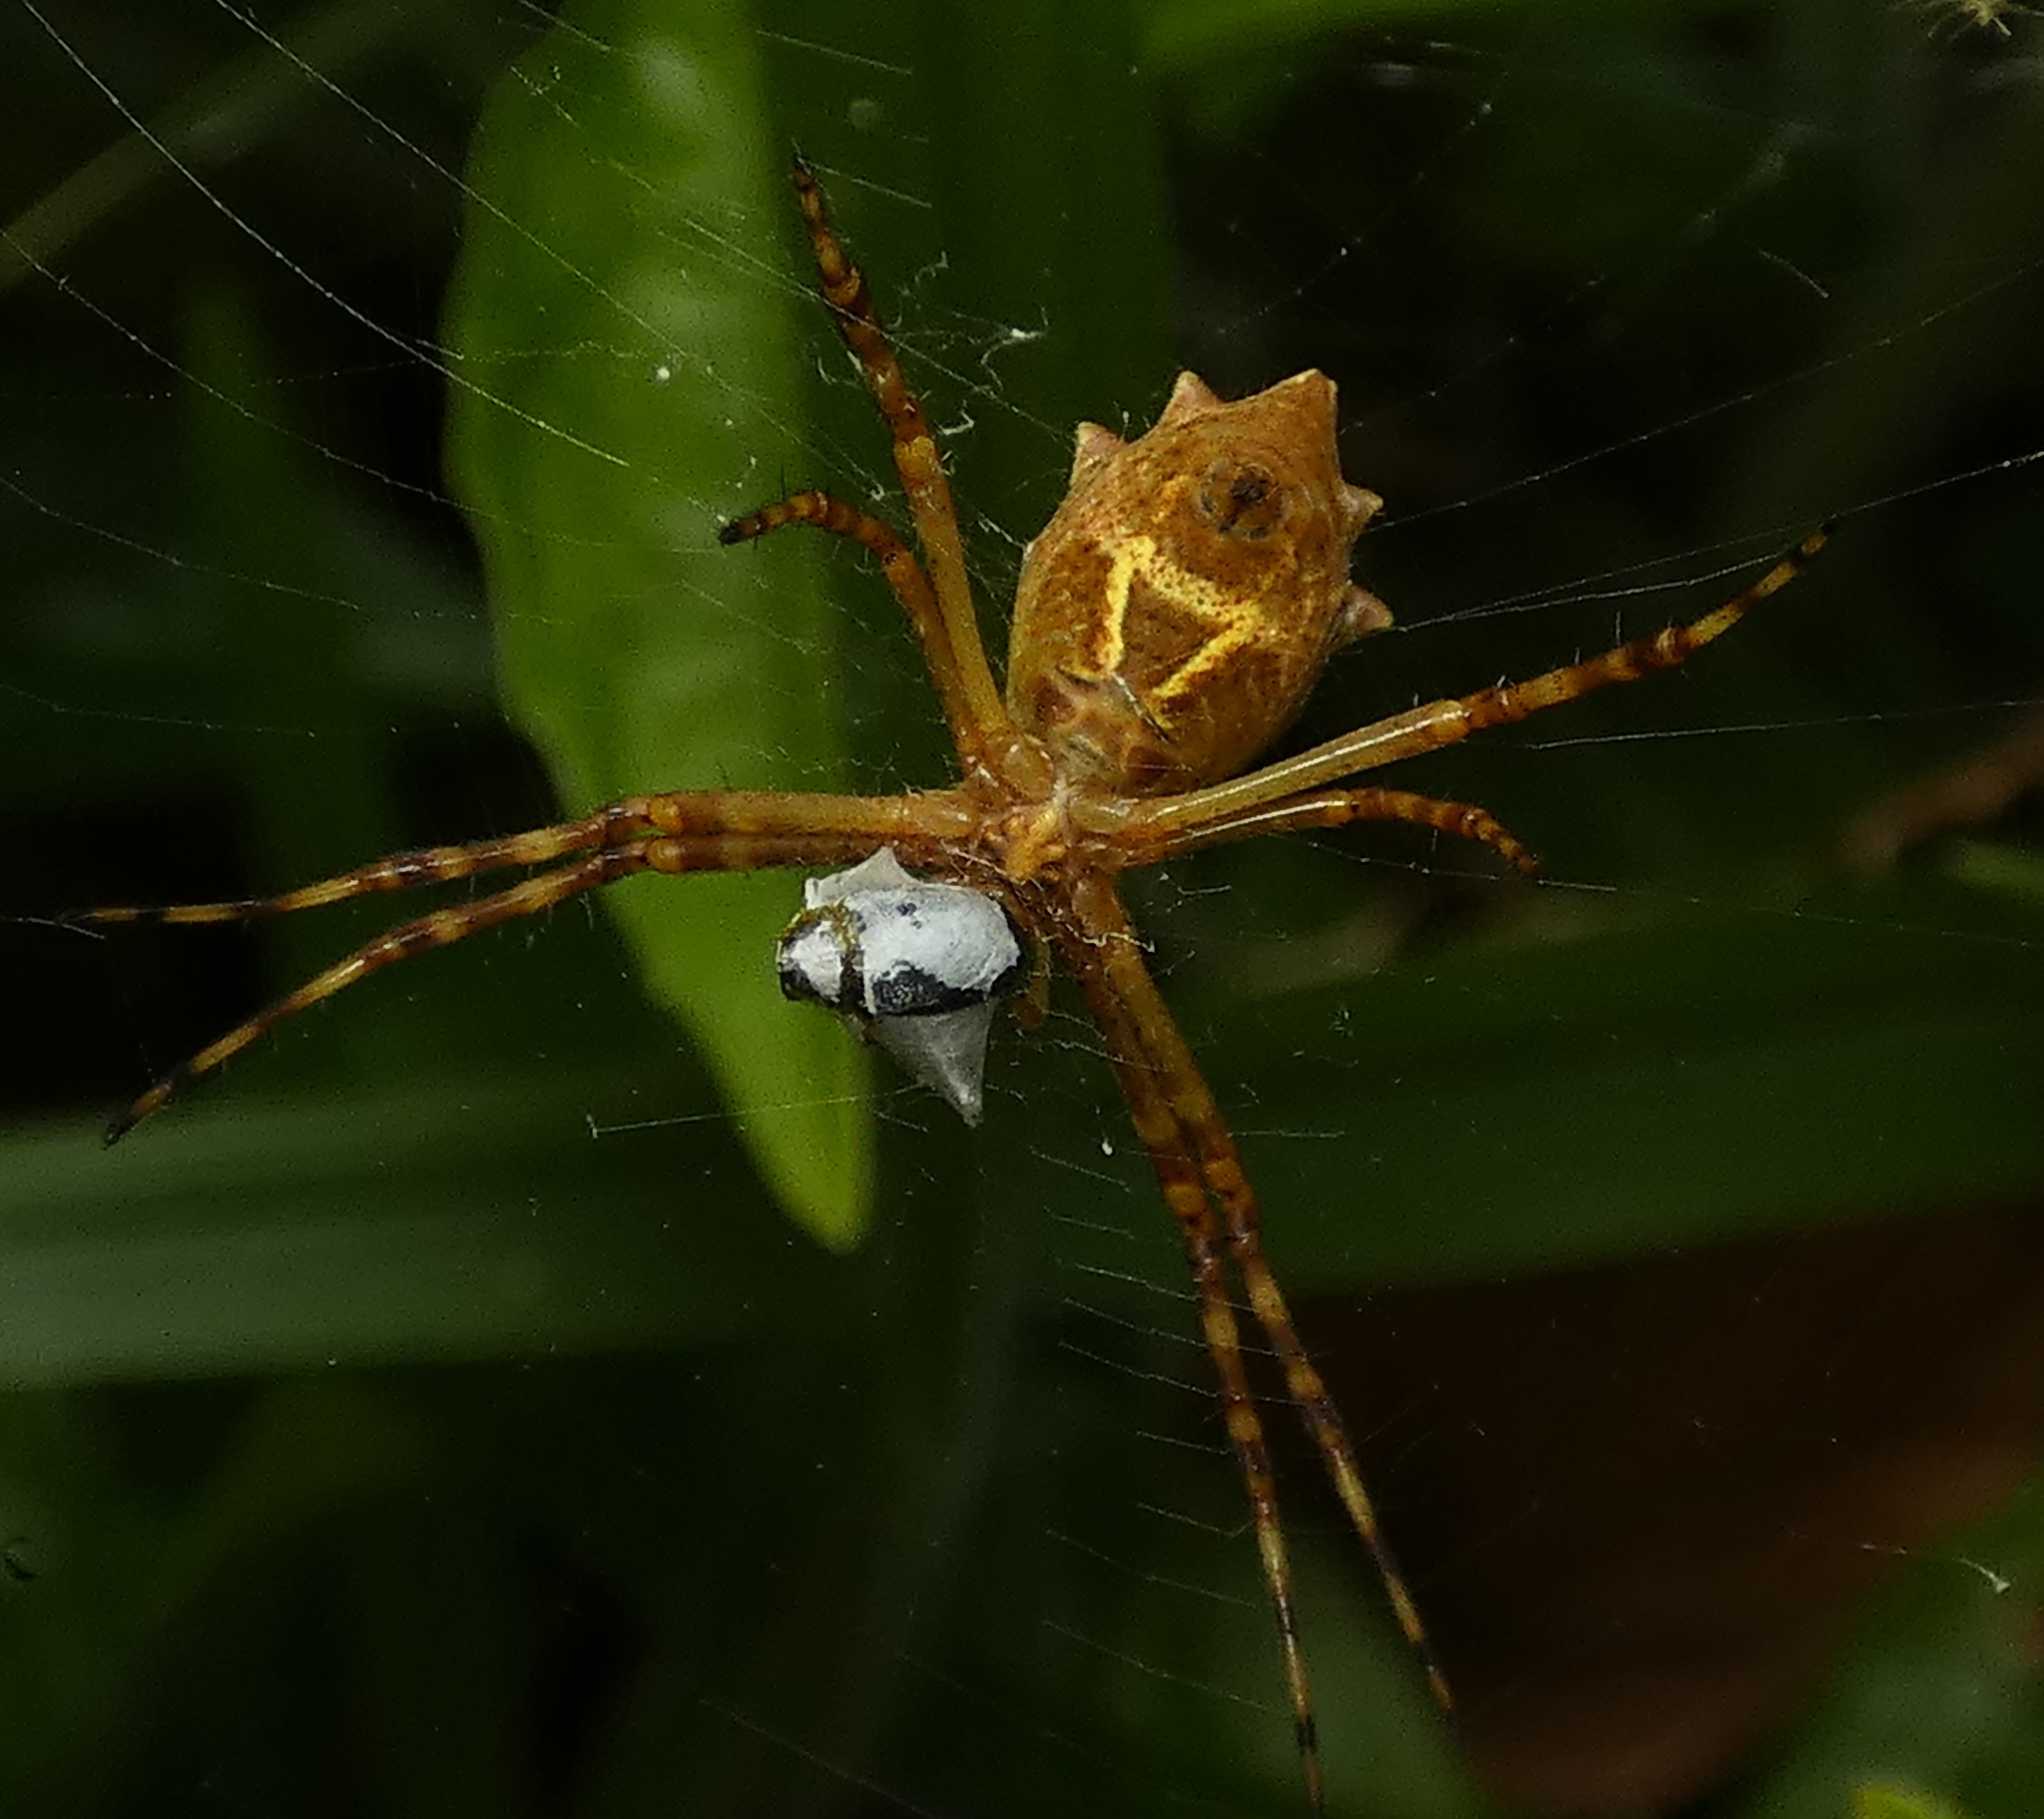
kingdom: Animalia
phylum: Arthropoda
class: Arachnida
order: Araneae
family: Araneidae
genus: Argiope
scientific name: Argiope argentata
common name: Orb weavers
